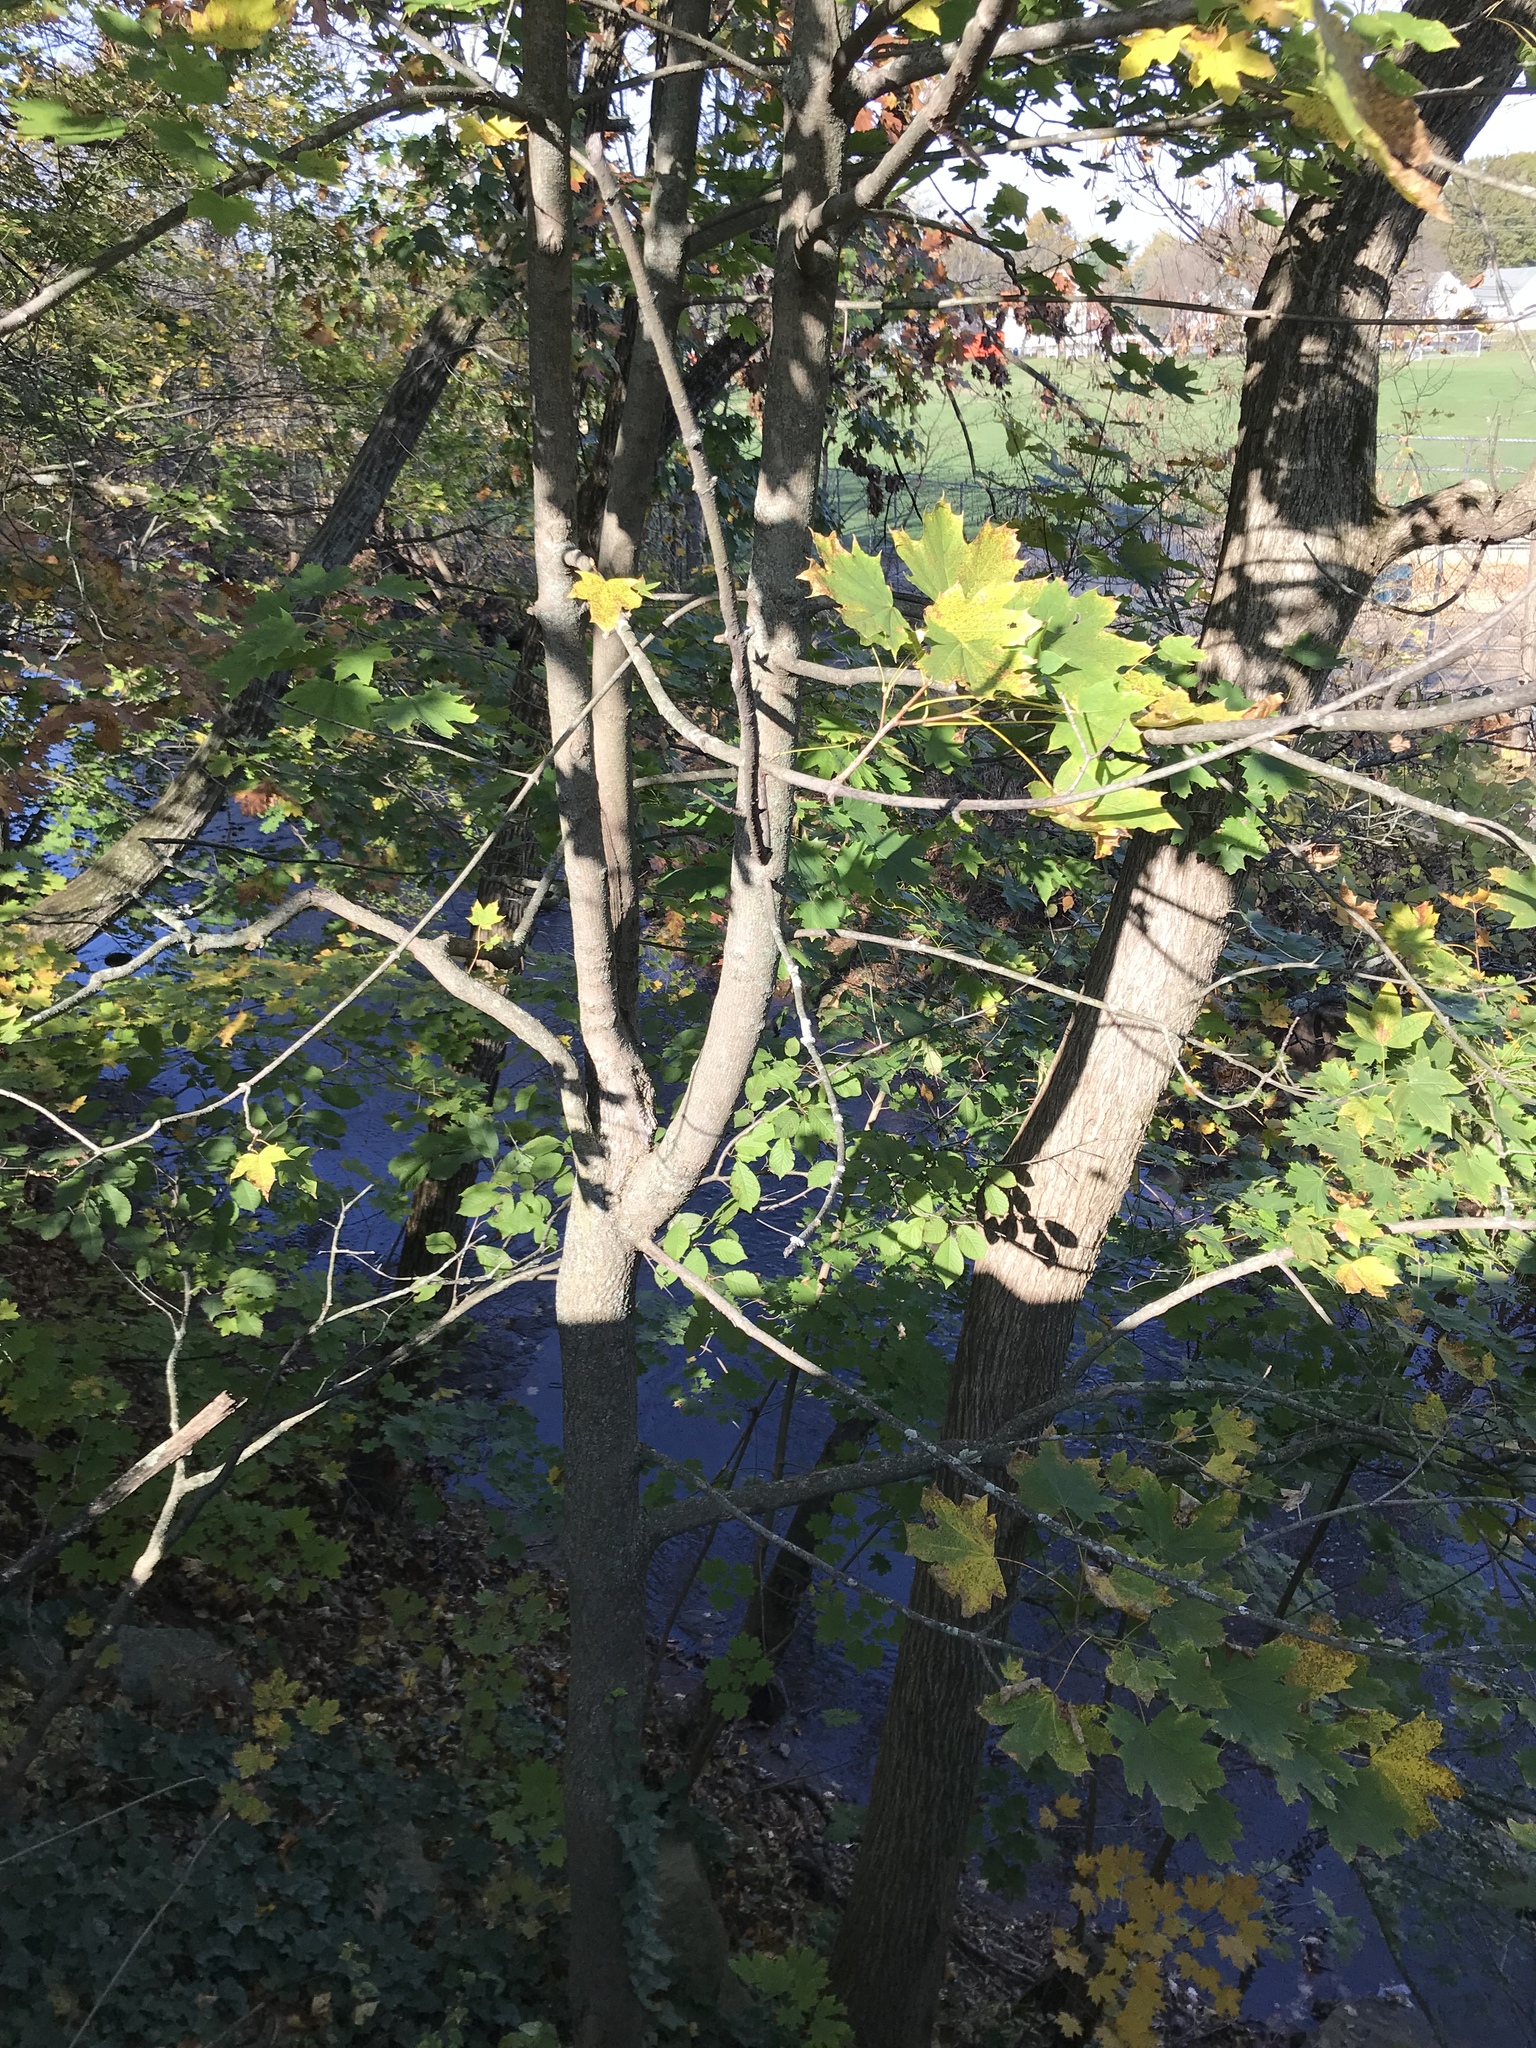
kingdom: Plantae
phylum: Tracheophyta
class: Magnoliopsida
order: Sapindales
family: Sapindaceae
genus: Acer
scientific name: Acer platanoides
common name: Norway maple
